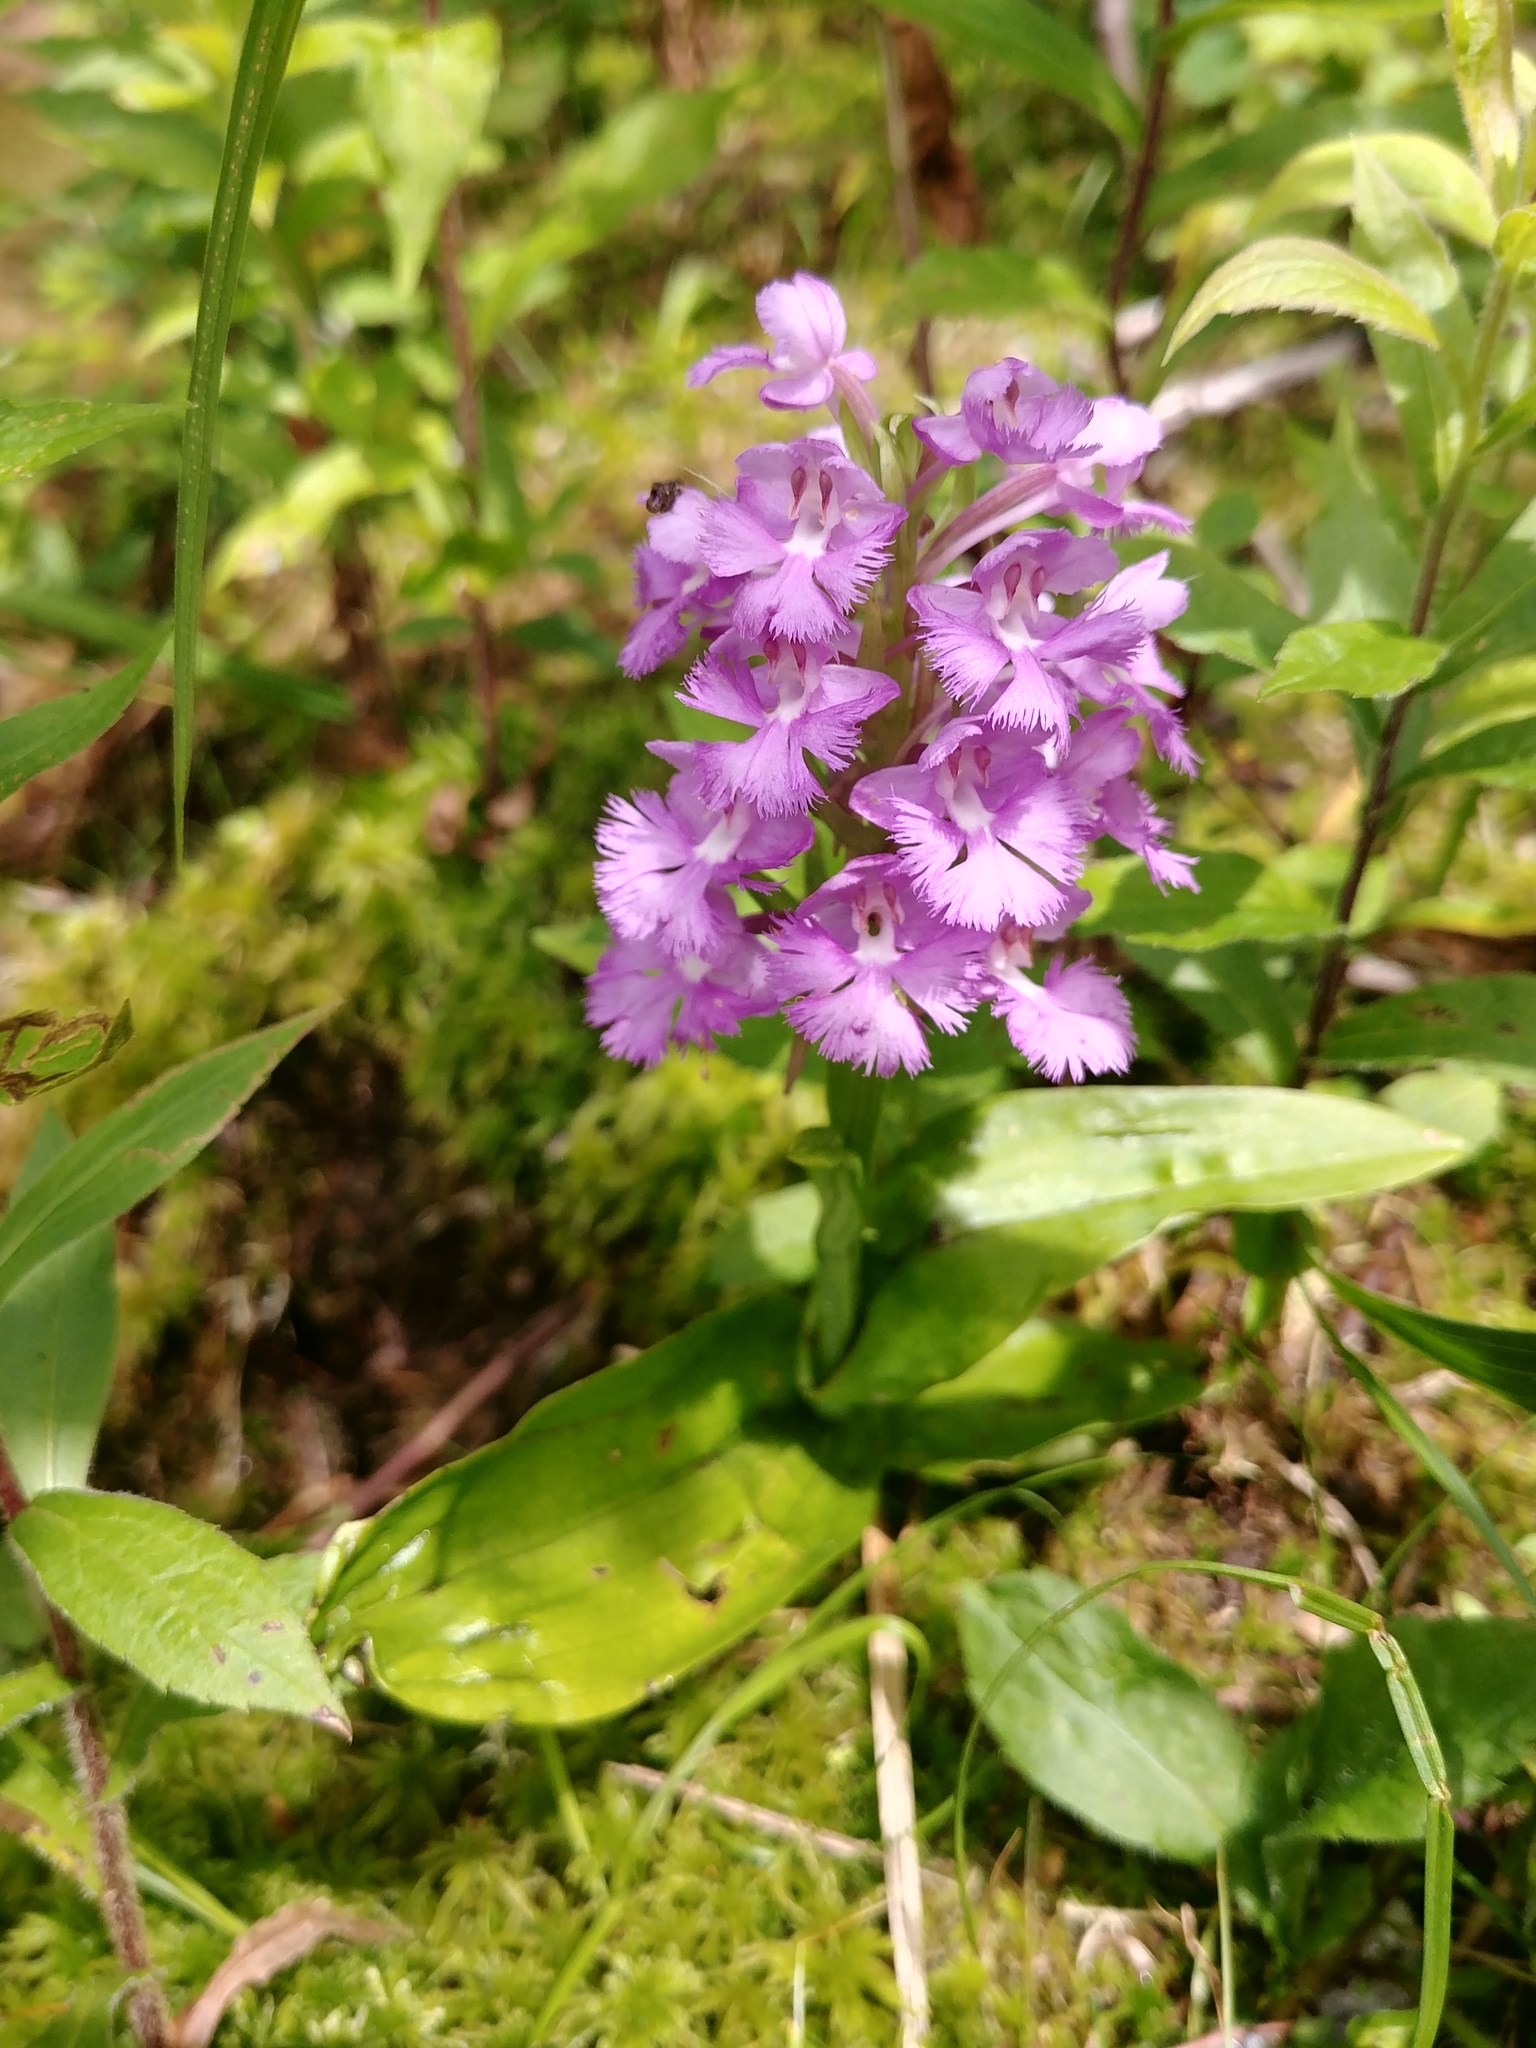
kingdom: Plantae
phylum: Tracheophyta
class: Liliopsida
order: Asparagales
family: Orchidaceae
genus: Platanthera
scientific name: Platanthera grandiflora
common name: Greater purple fringed orchid
